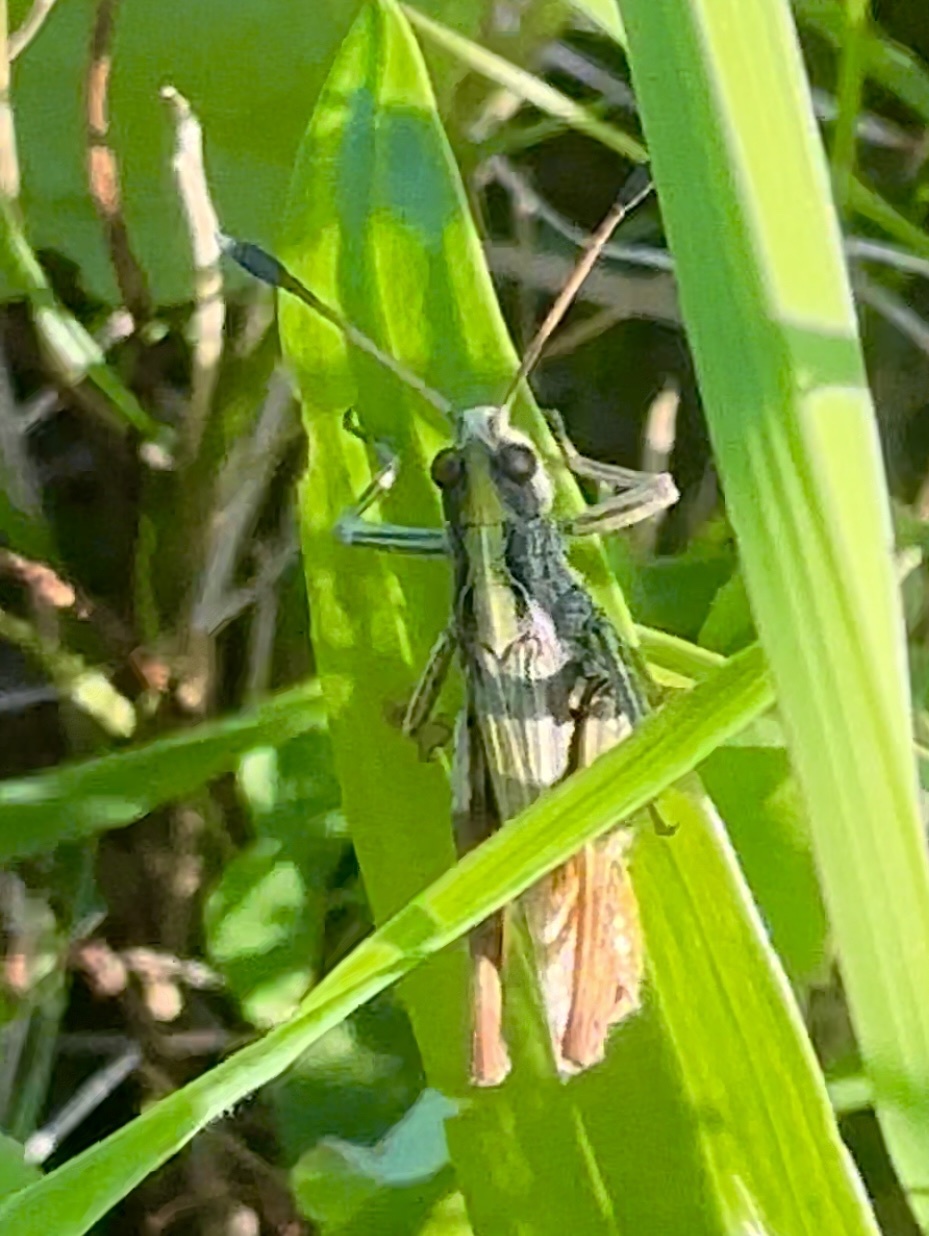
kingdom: Animalia
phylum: Arthropoda
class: Insecta
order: Orthoptera
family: Acrididae
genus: Gomphocerippus
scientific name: Gomphocerippus rufus
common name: Rufous grasshopper
